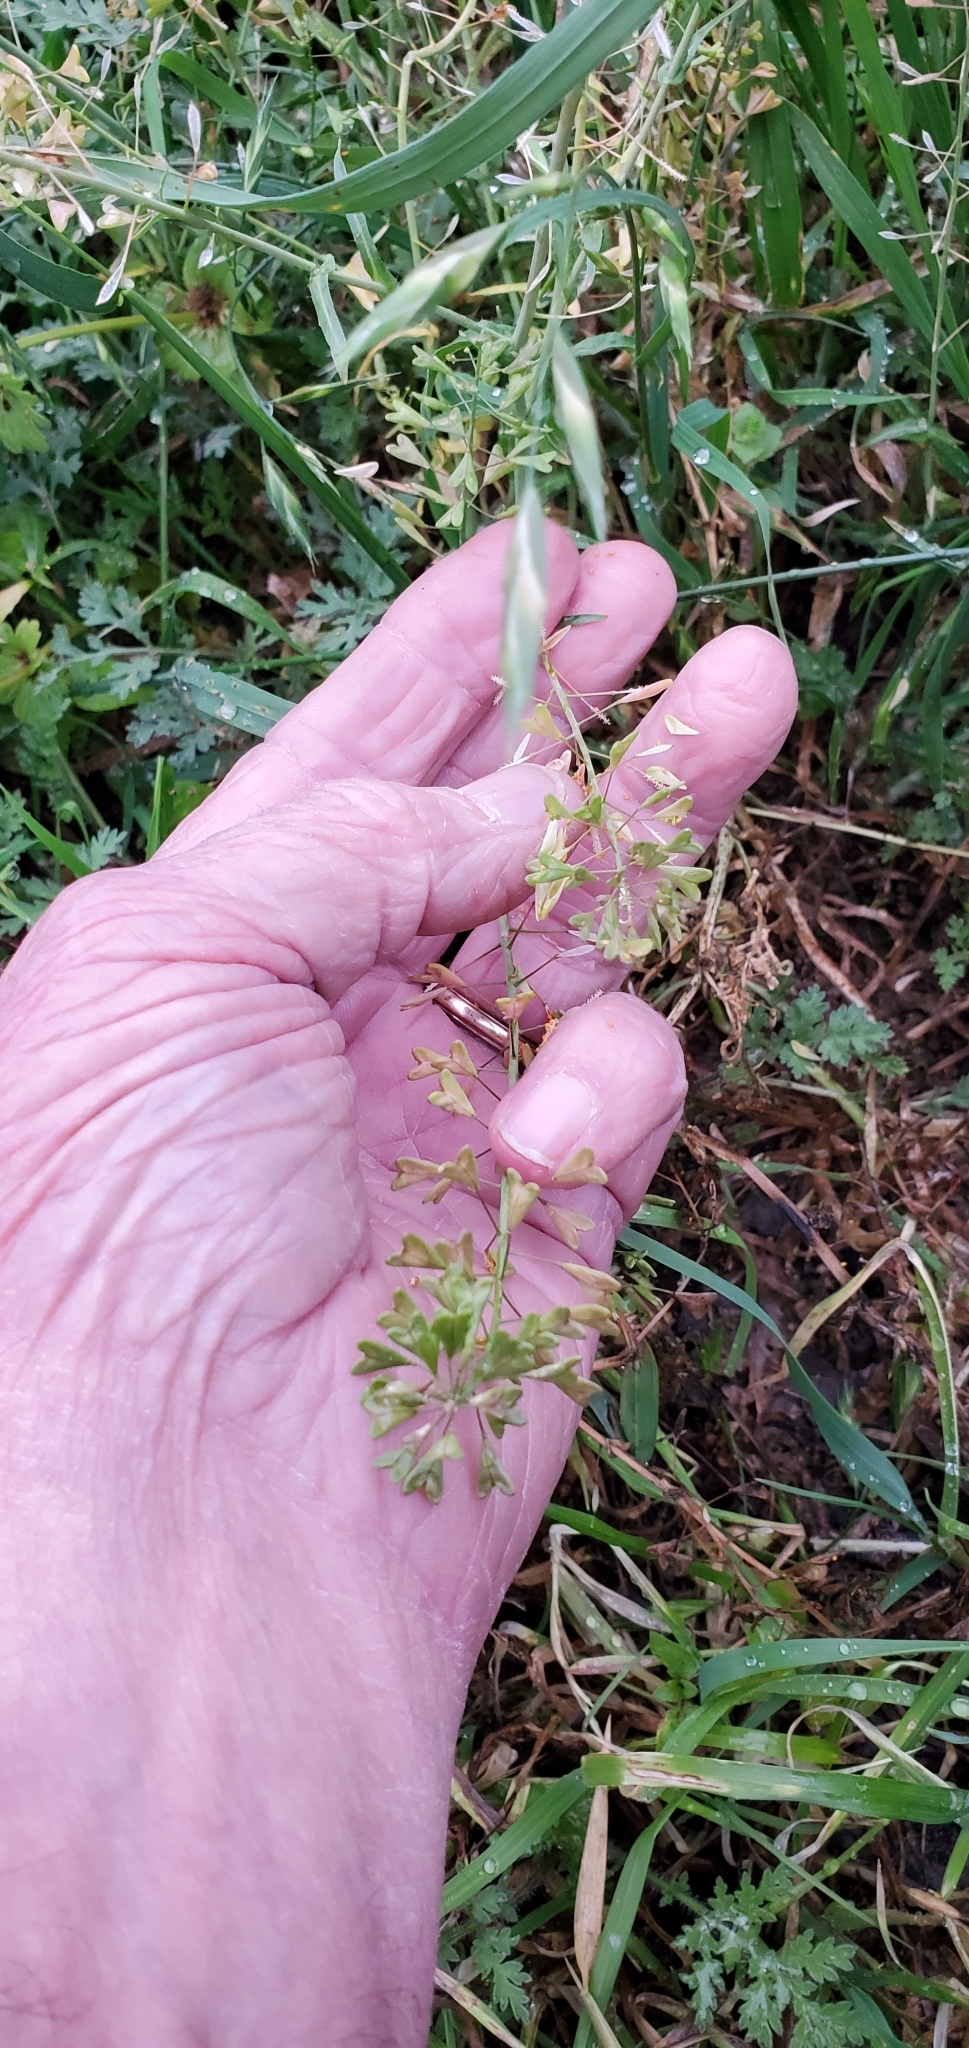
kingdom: Plantae
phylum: Tracheophyta
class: Magnoliopsida
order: Brassicales
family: Brassicaceae
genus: Capsella
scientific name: Capsella bursa-pastoris
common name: Shepherd's purse
